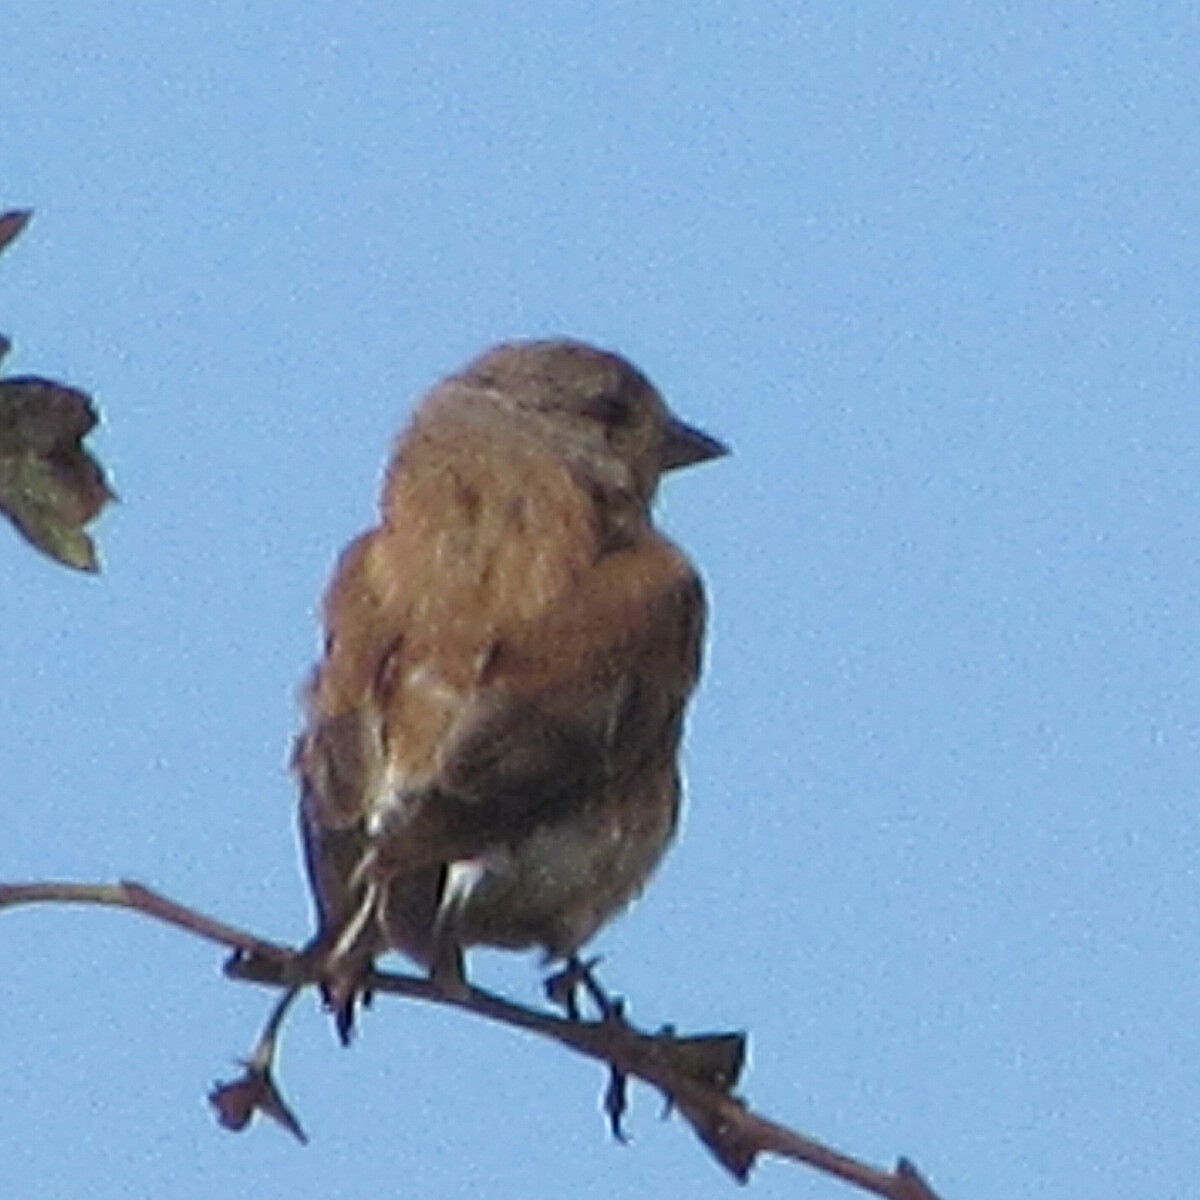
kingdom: Animalia
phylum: Chordata
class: Aves
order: Passeriformes
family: Fringillidae
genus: Linaria
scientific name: Linaria cannabina
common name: Common linnet
